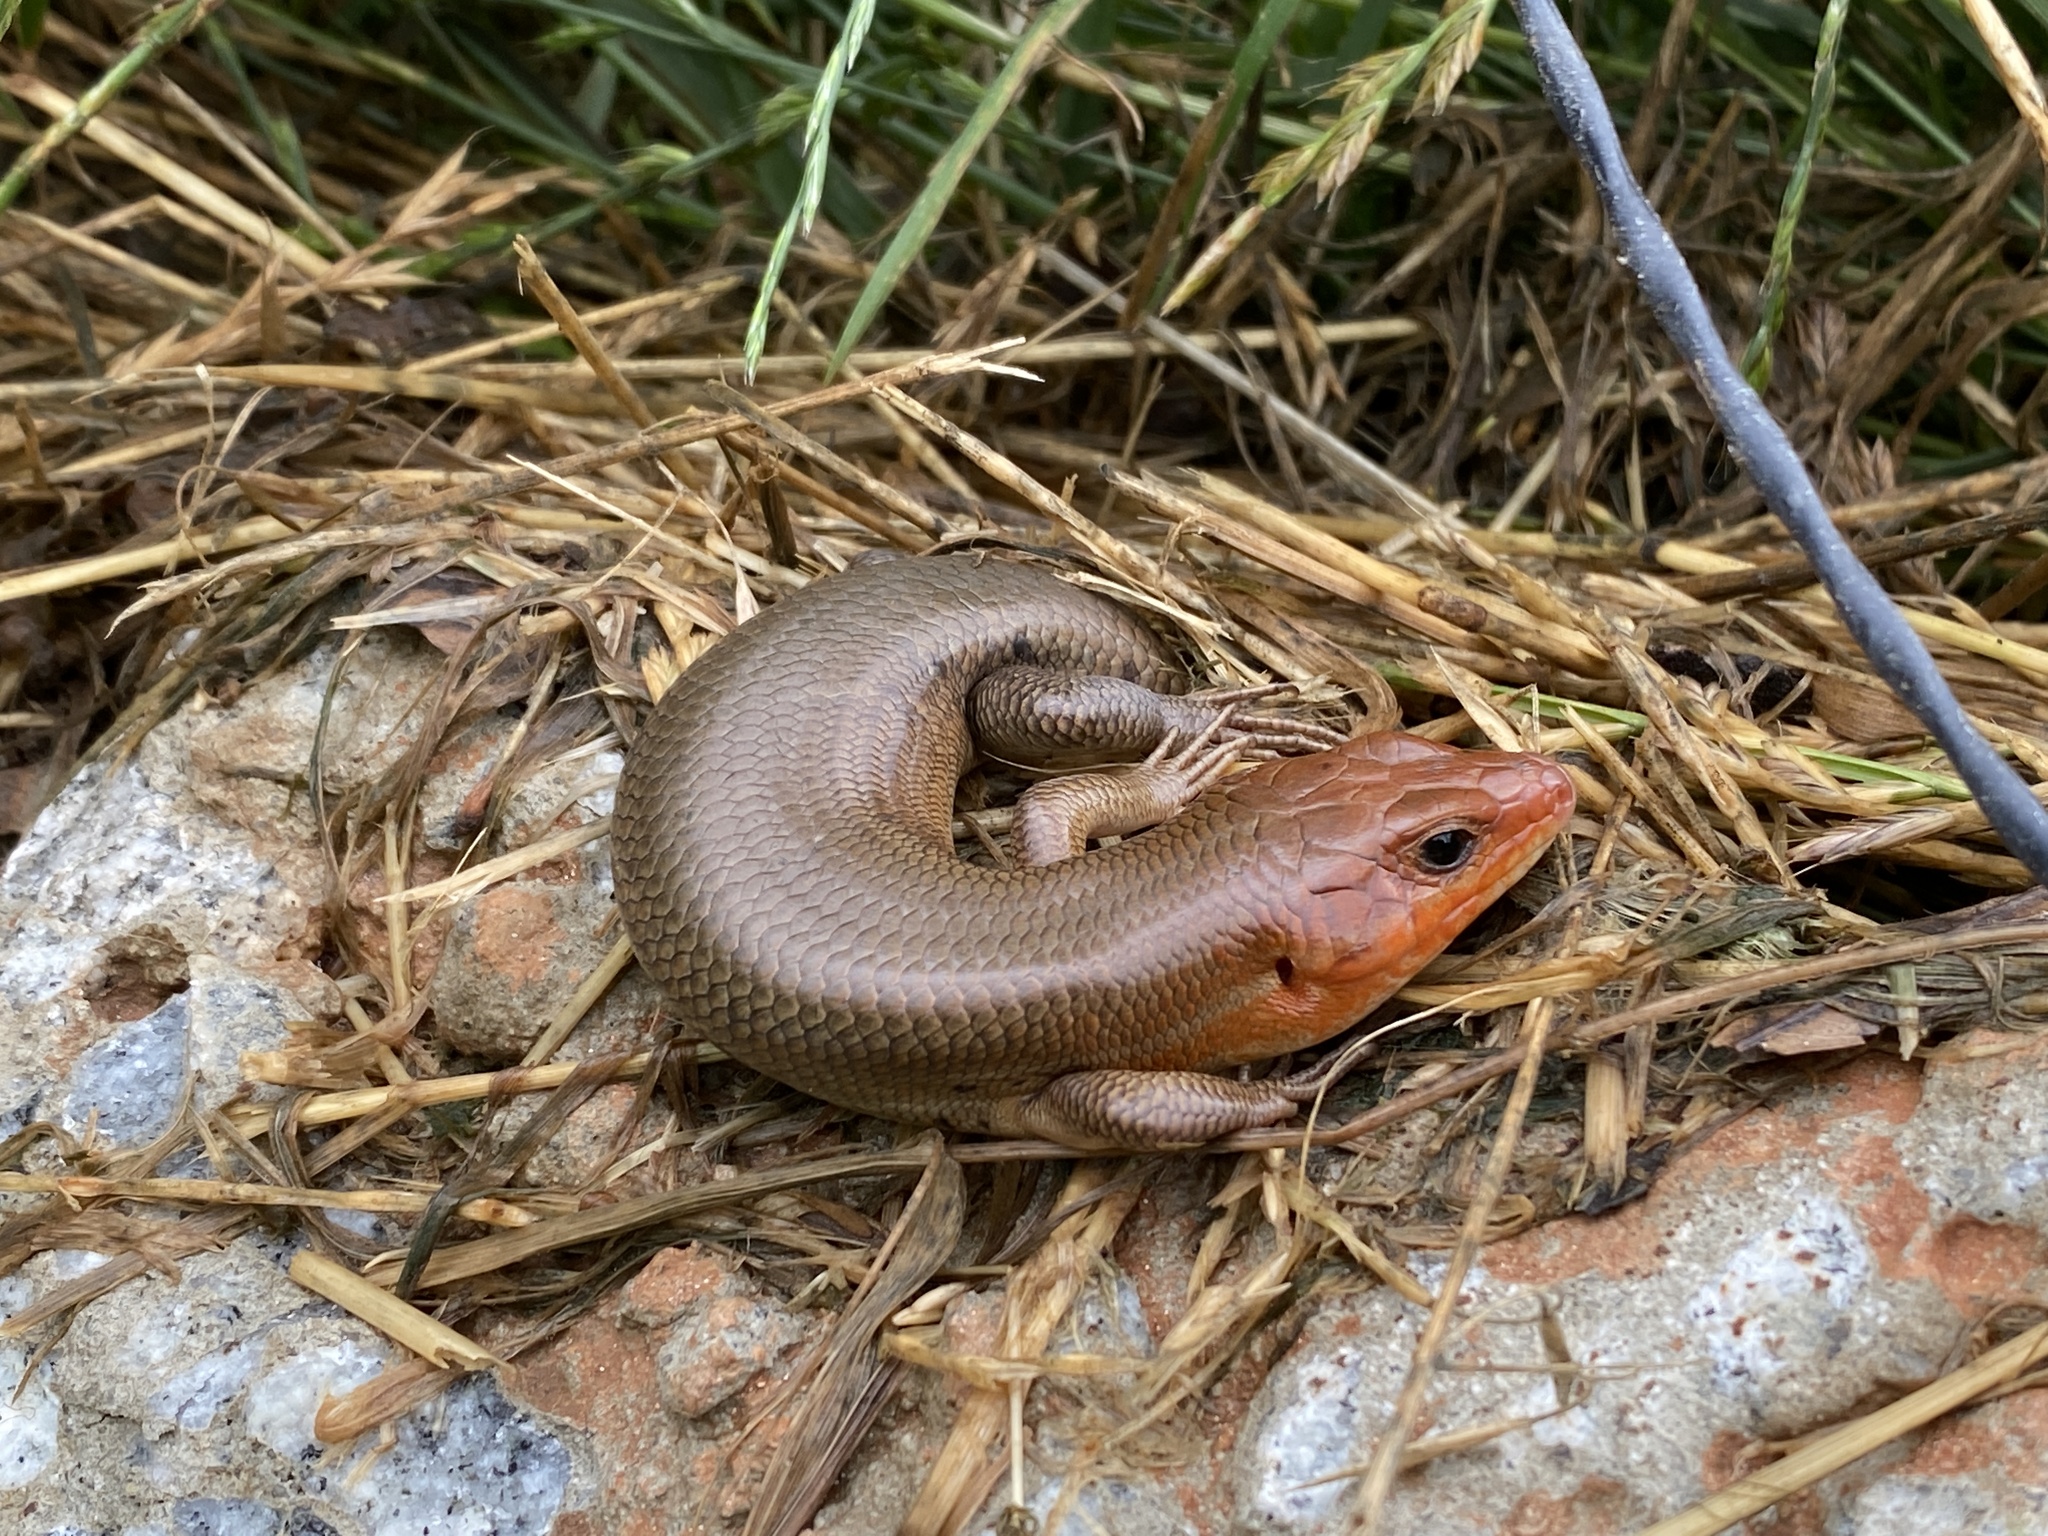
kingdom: Animalia
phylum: Chordata
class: Squamata
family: Scincidae
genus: Plestiodon
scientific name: Plestiodon laticeps
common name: Broadhead skink
